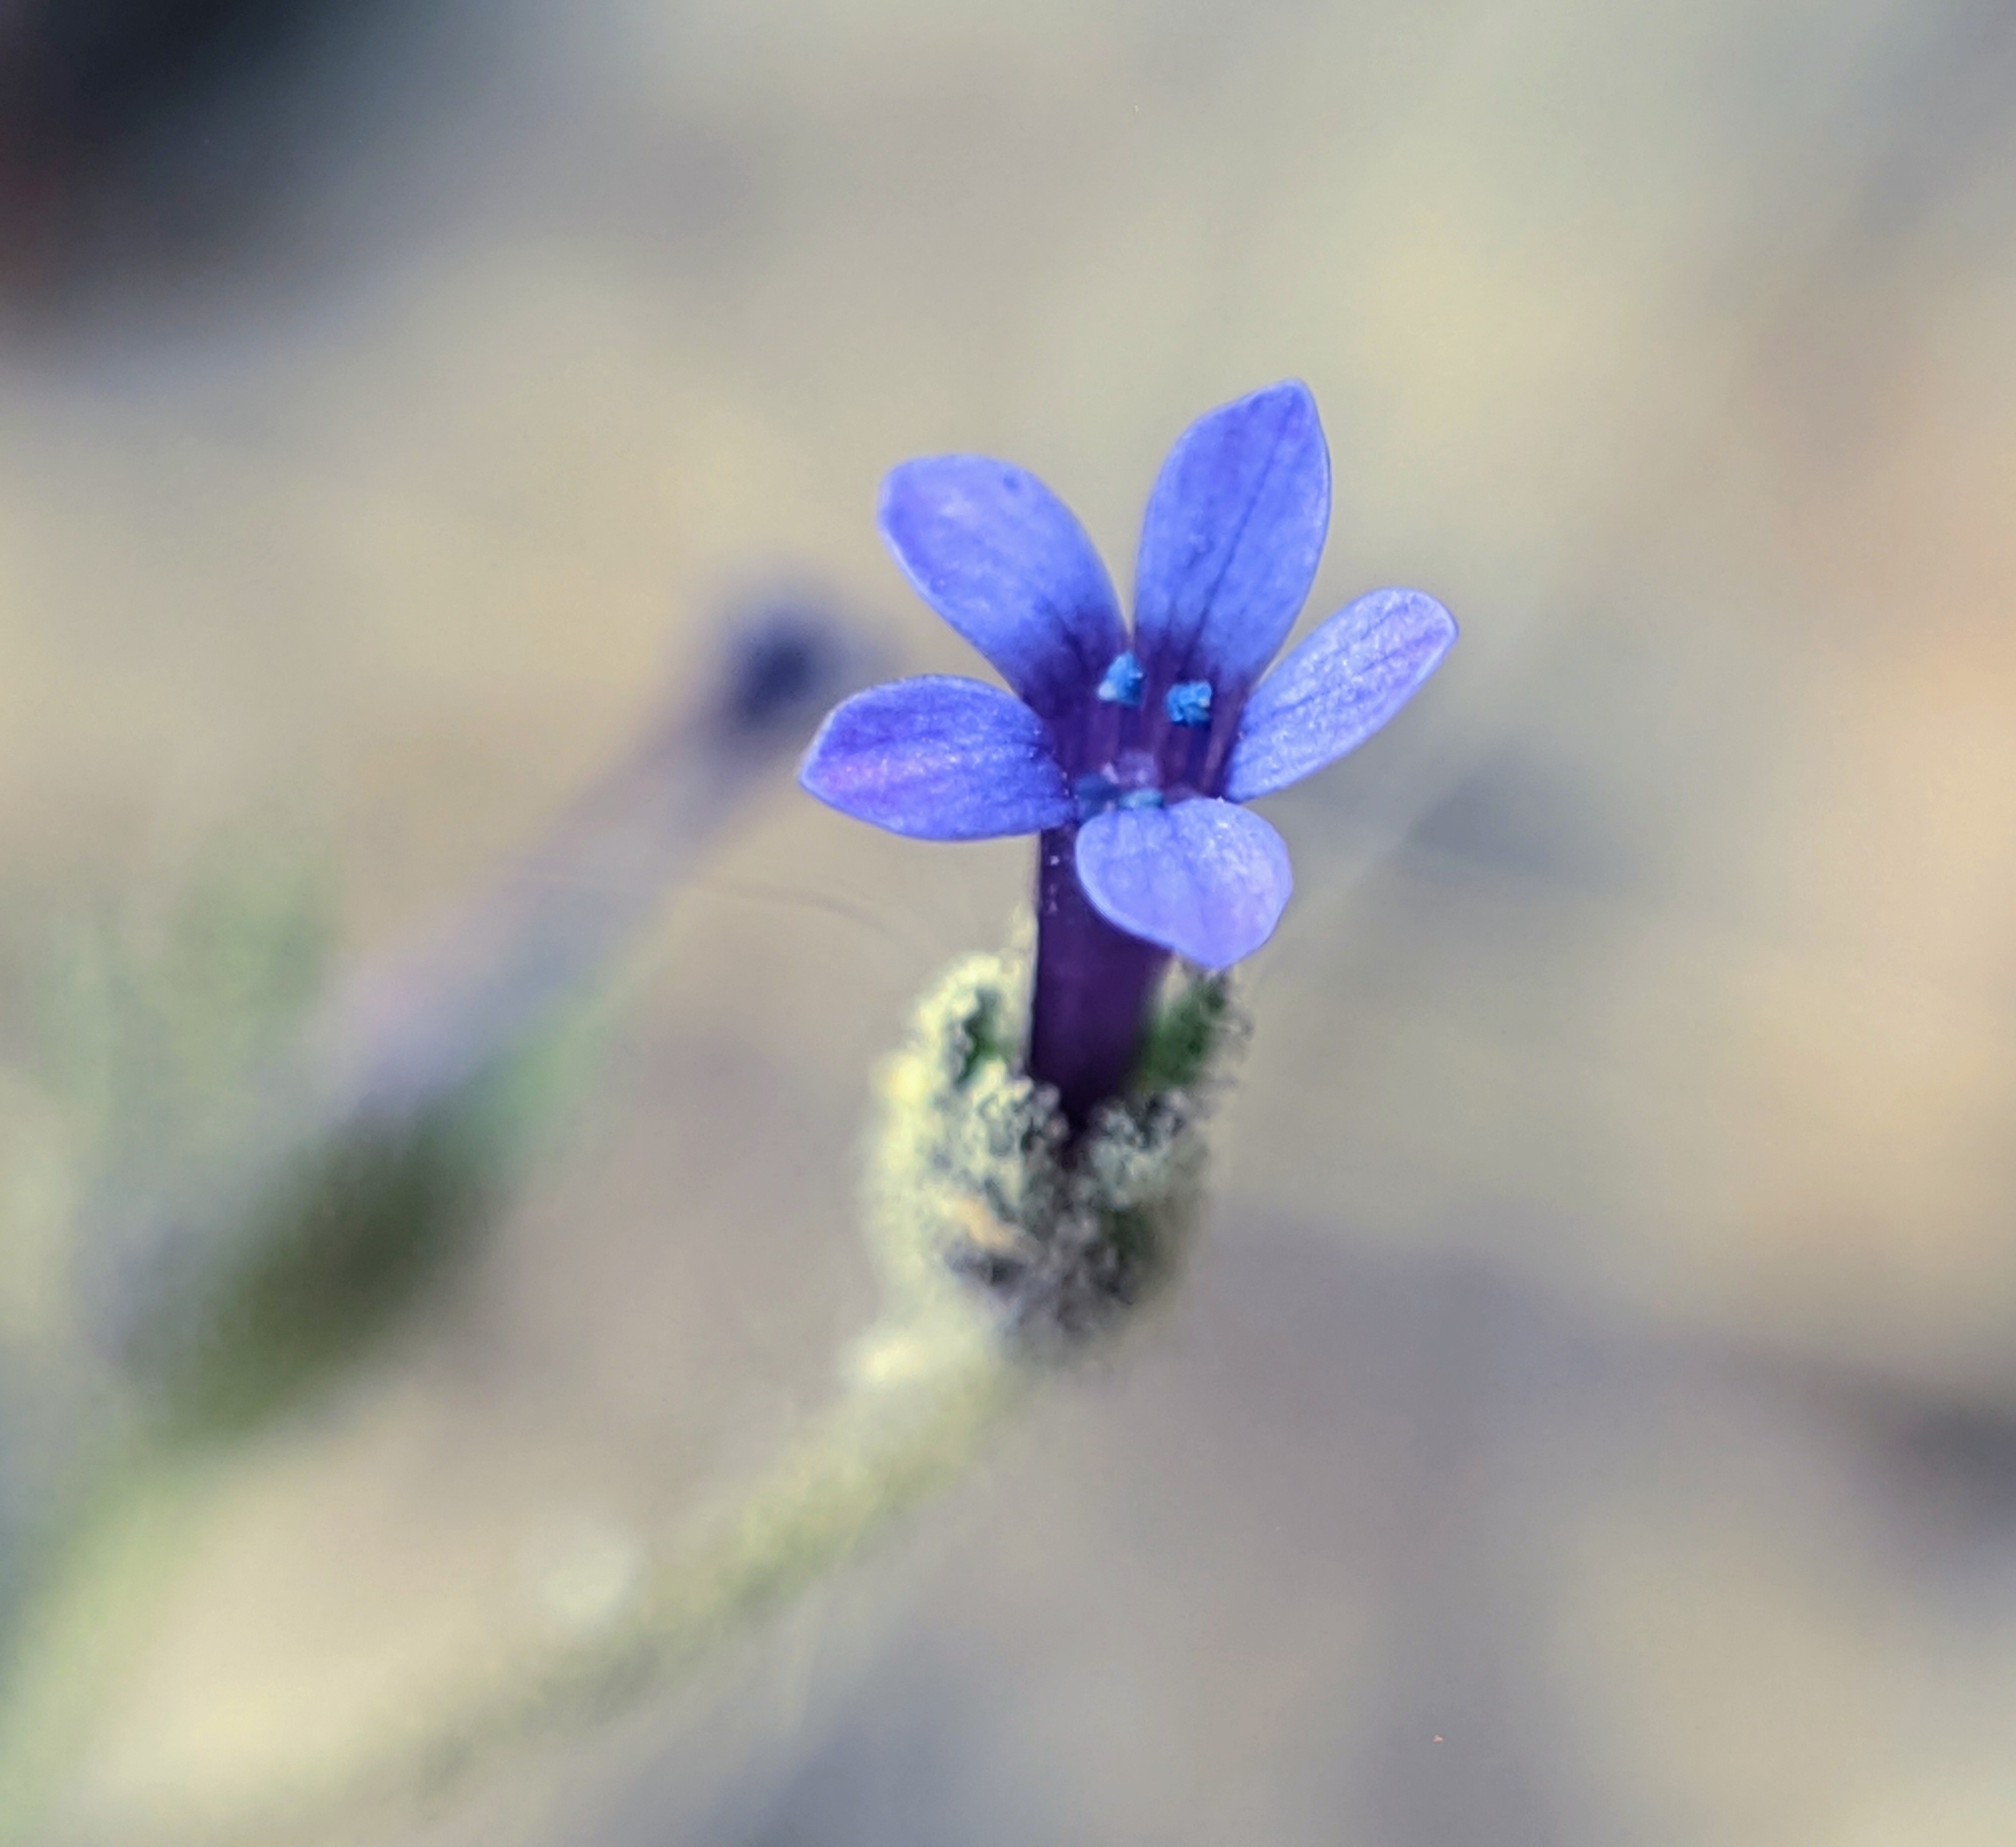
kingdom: Plantae
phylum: Tracheophyta
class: Magnoliopsida
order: Ericales
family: Polemoniaceae
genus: Allophyllum
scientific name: Allophyllum gilioides
